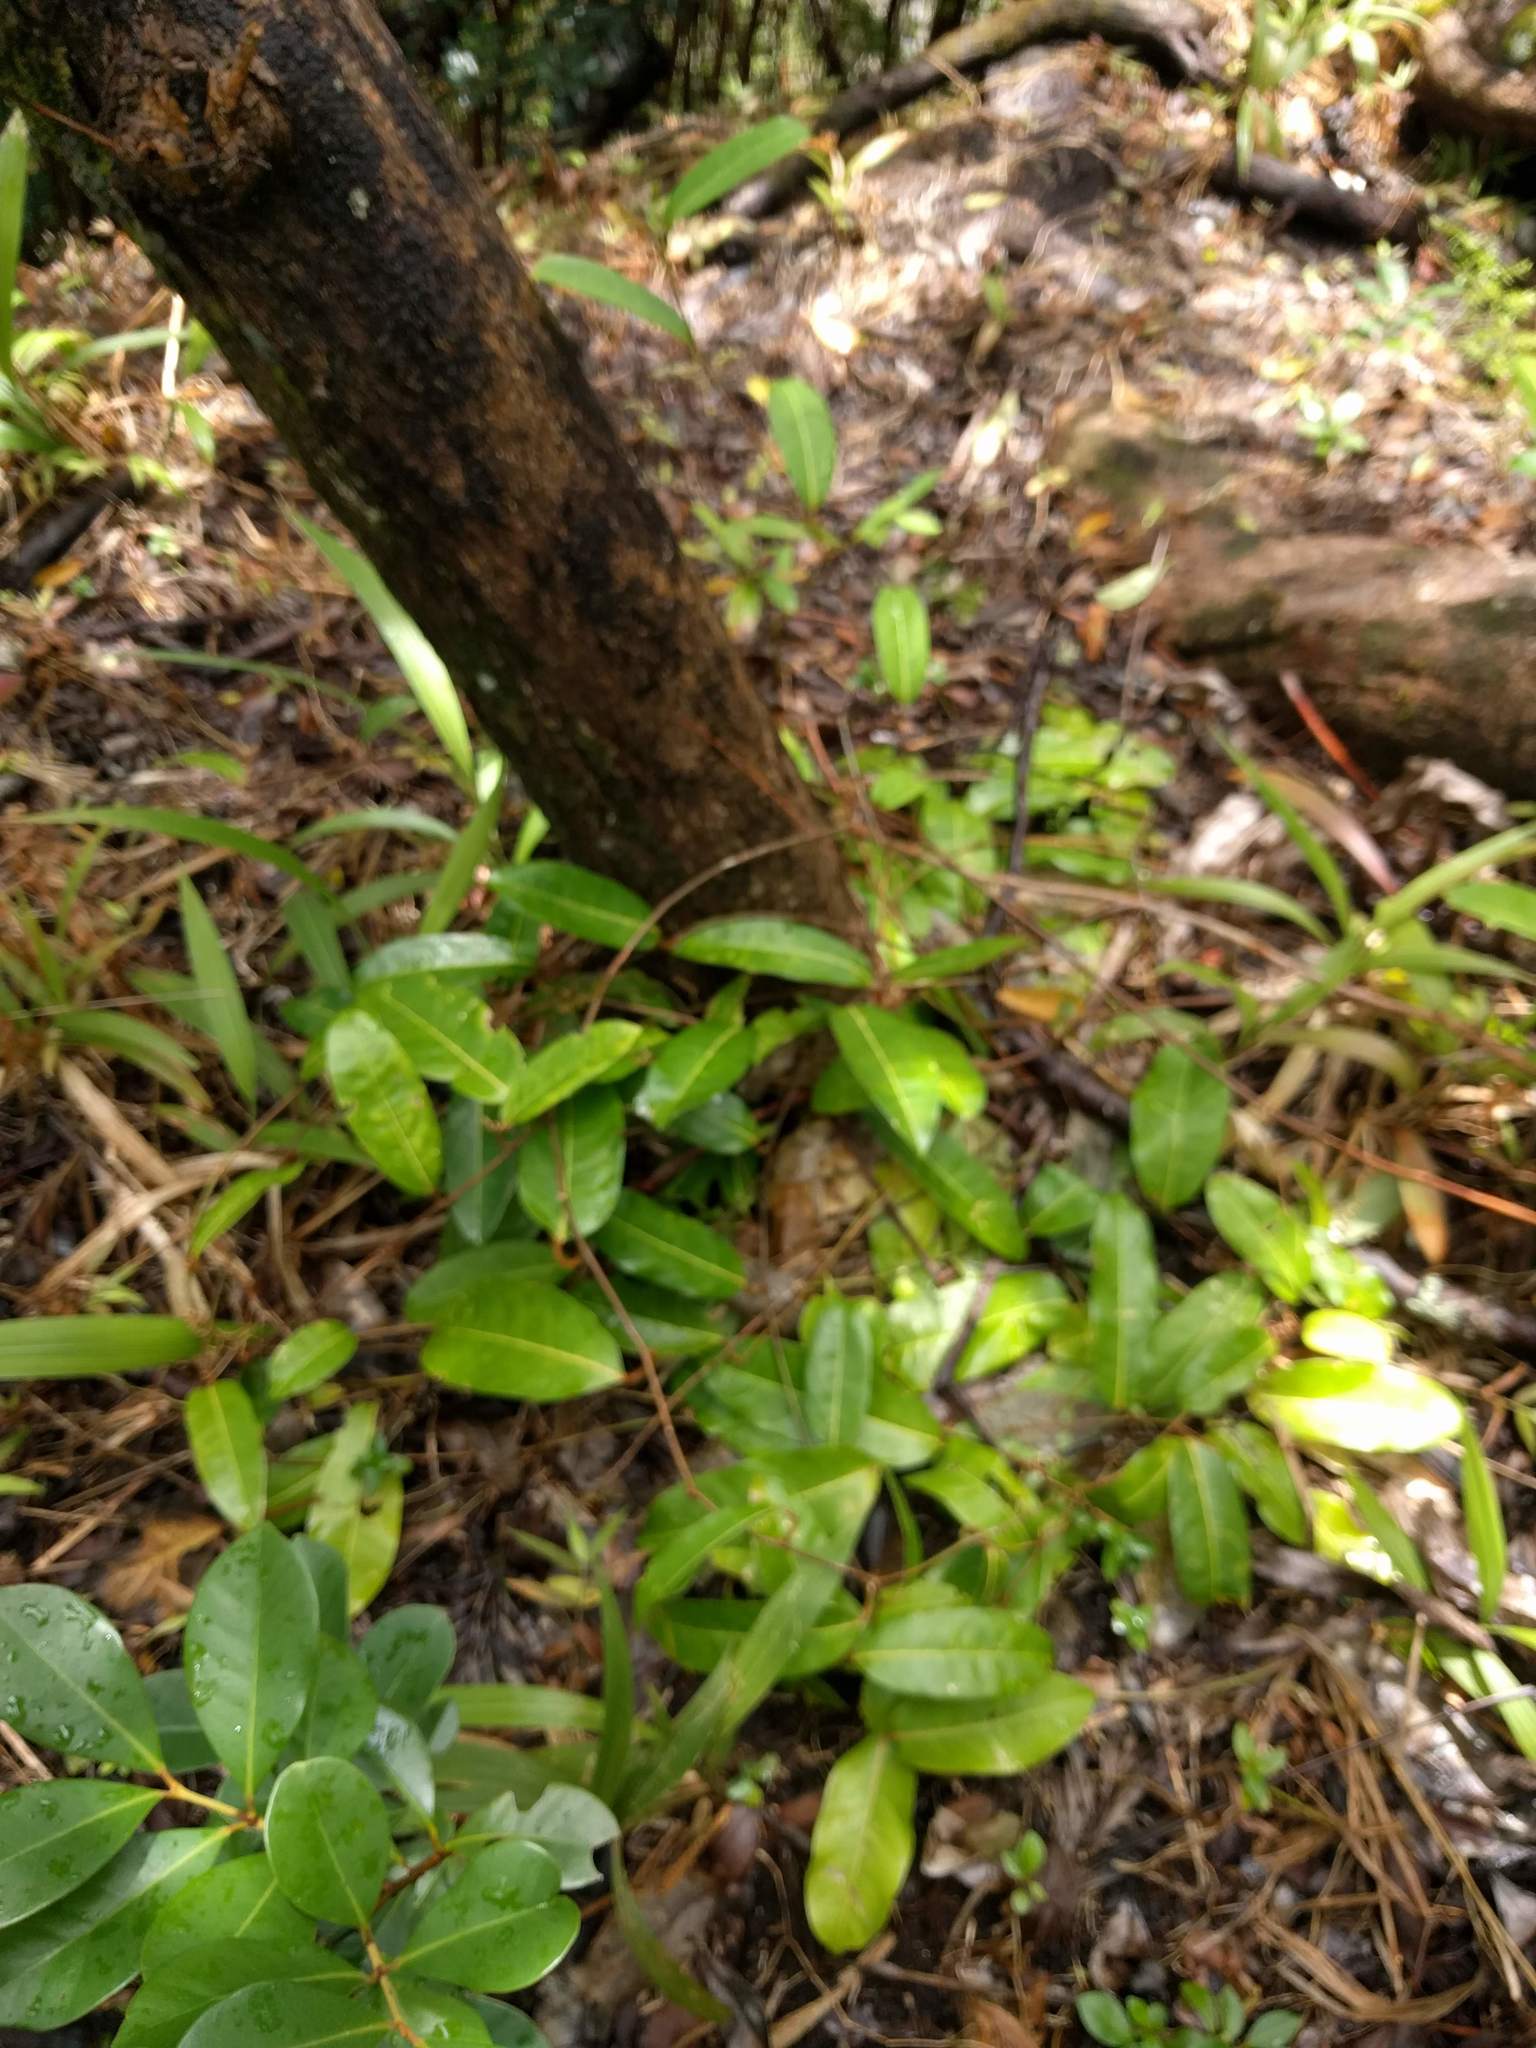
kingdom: Plantae
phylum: Tracheophyta
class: Magnoliopsida
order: Malpighiales
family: Passifloraceae
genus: Passiflora
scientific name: Passiflora laurifolia
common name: Bell apple
